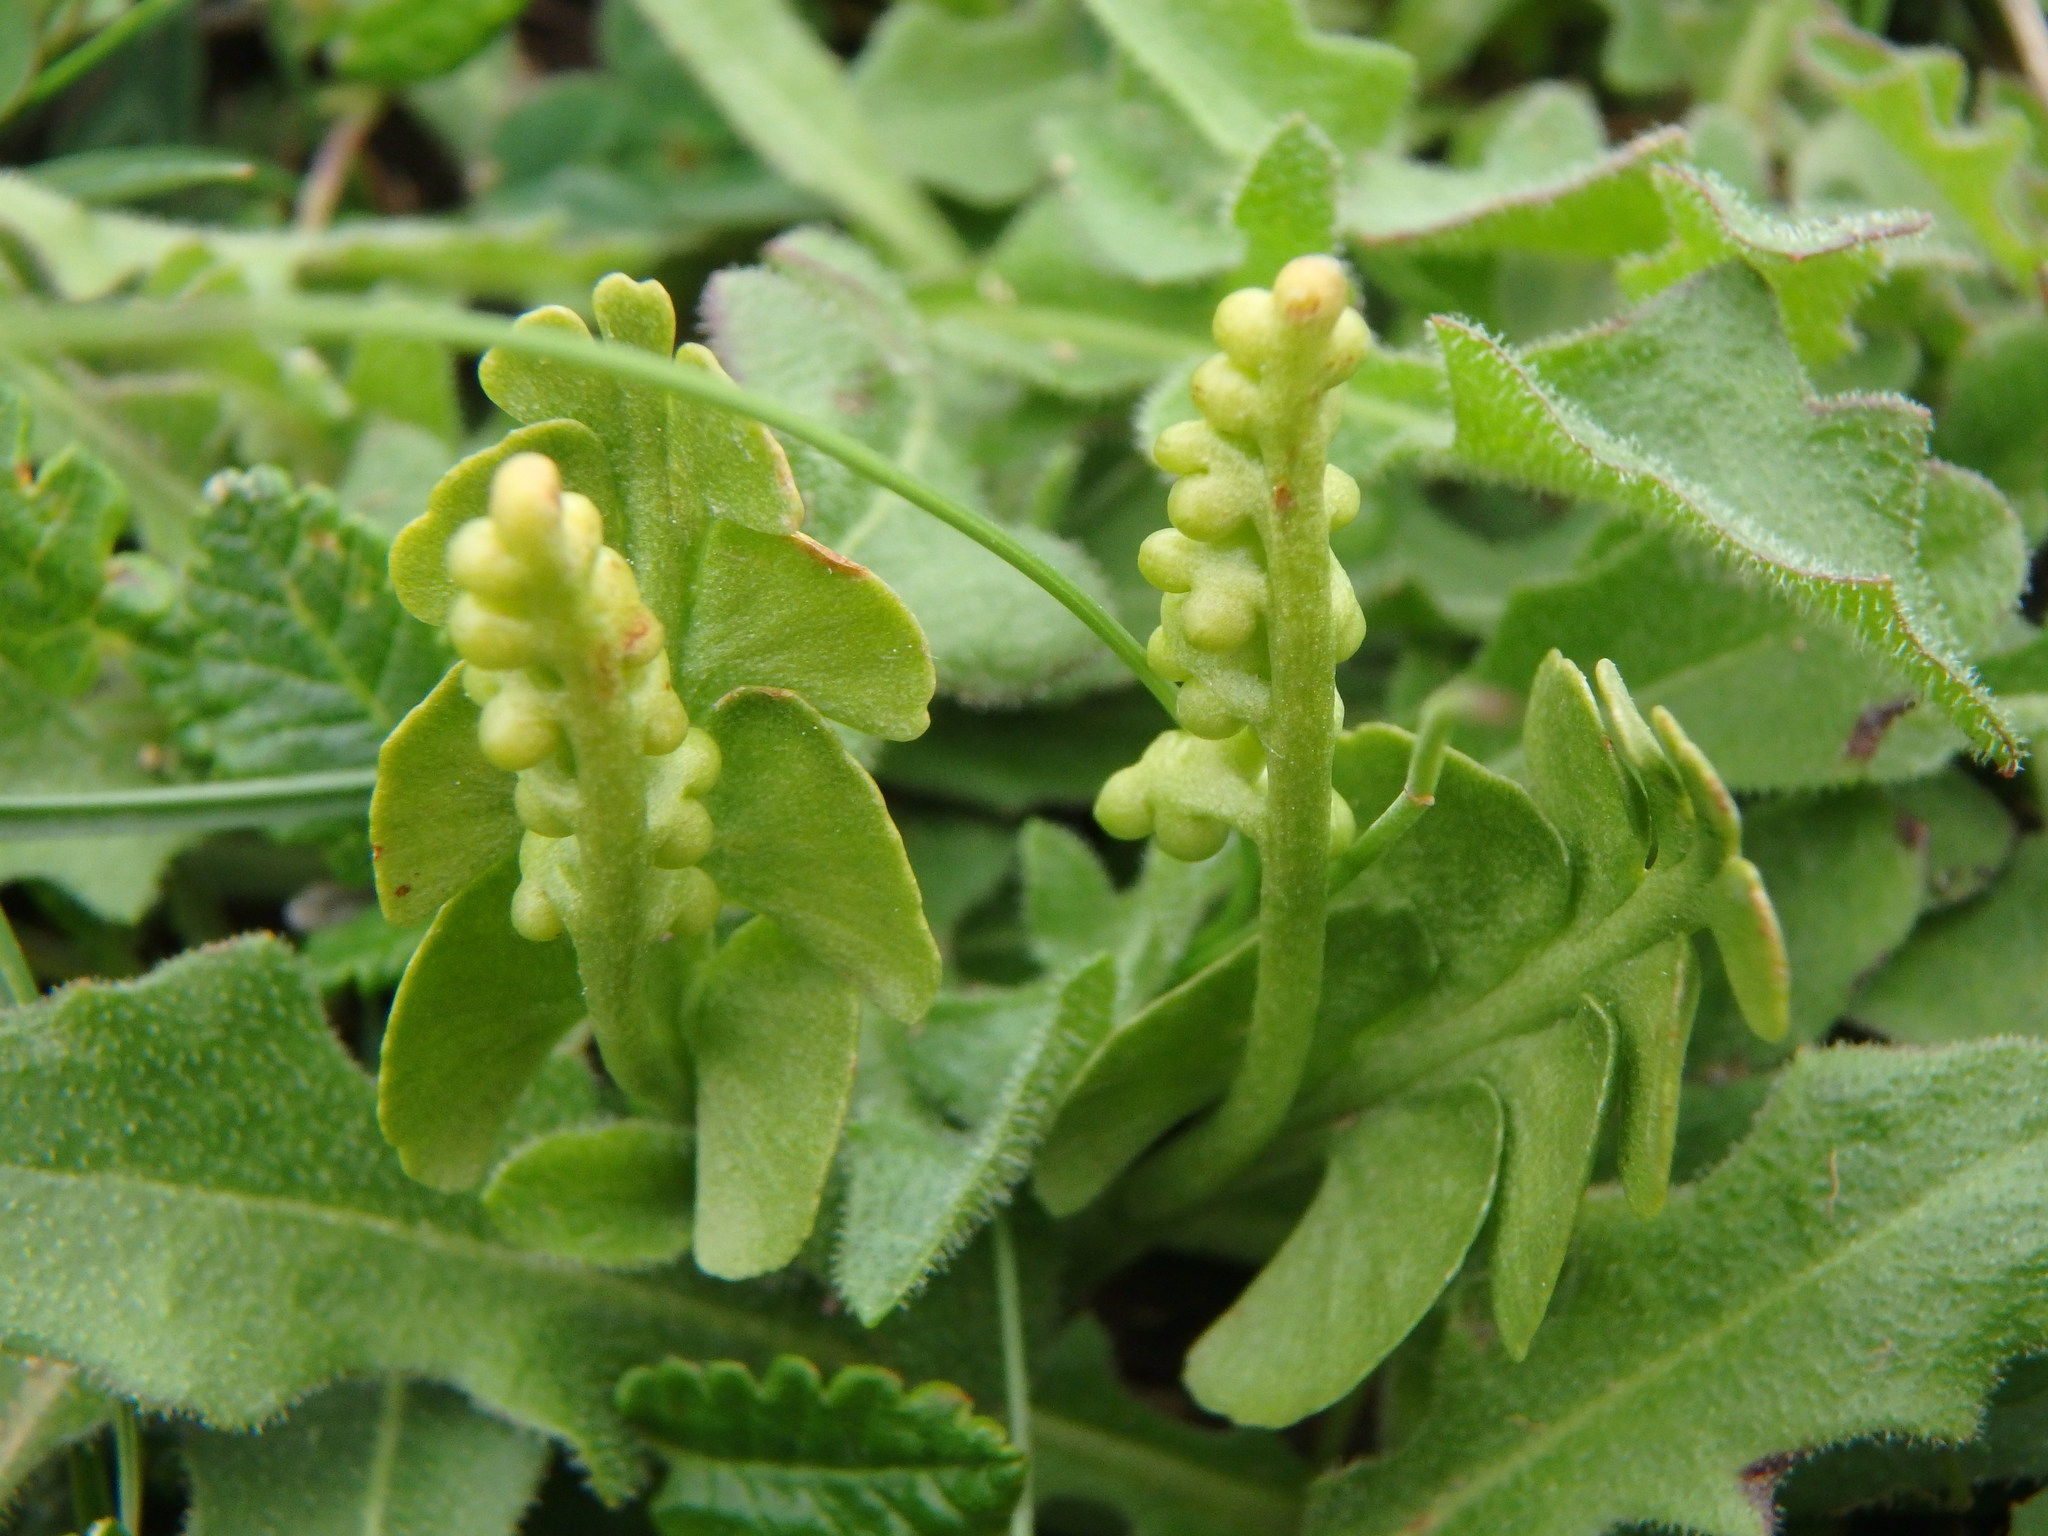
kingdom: Plantae
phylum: Tracheophyta
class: Polypodiopsida
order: Ophioglossales
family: Ophioglossaceae
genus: Botrychium
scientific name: Botrychium lunaria
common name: Moonwort
